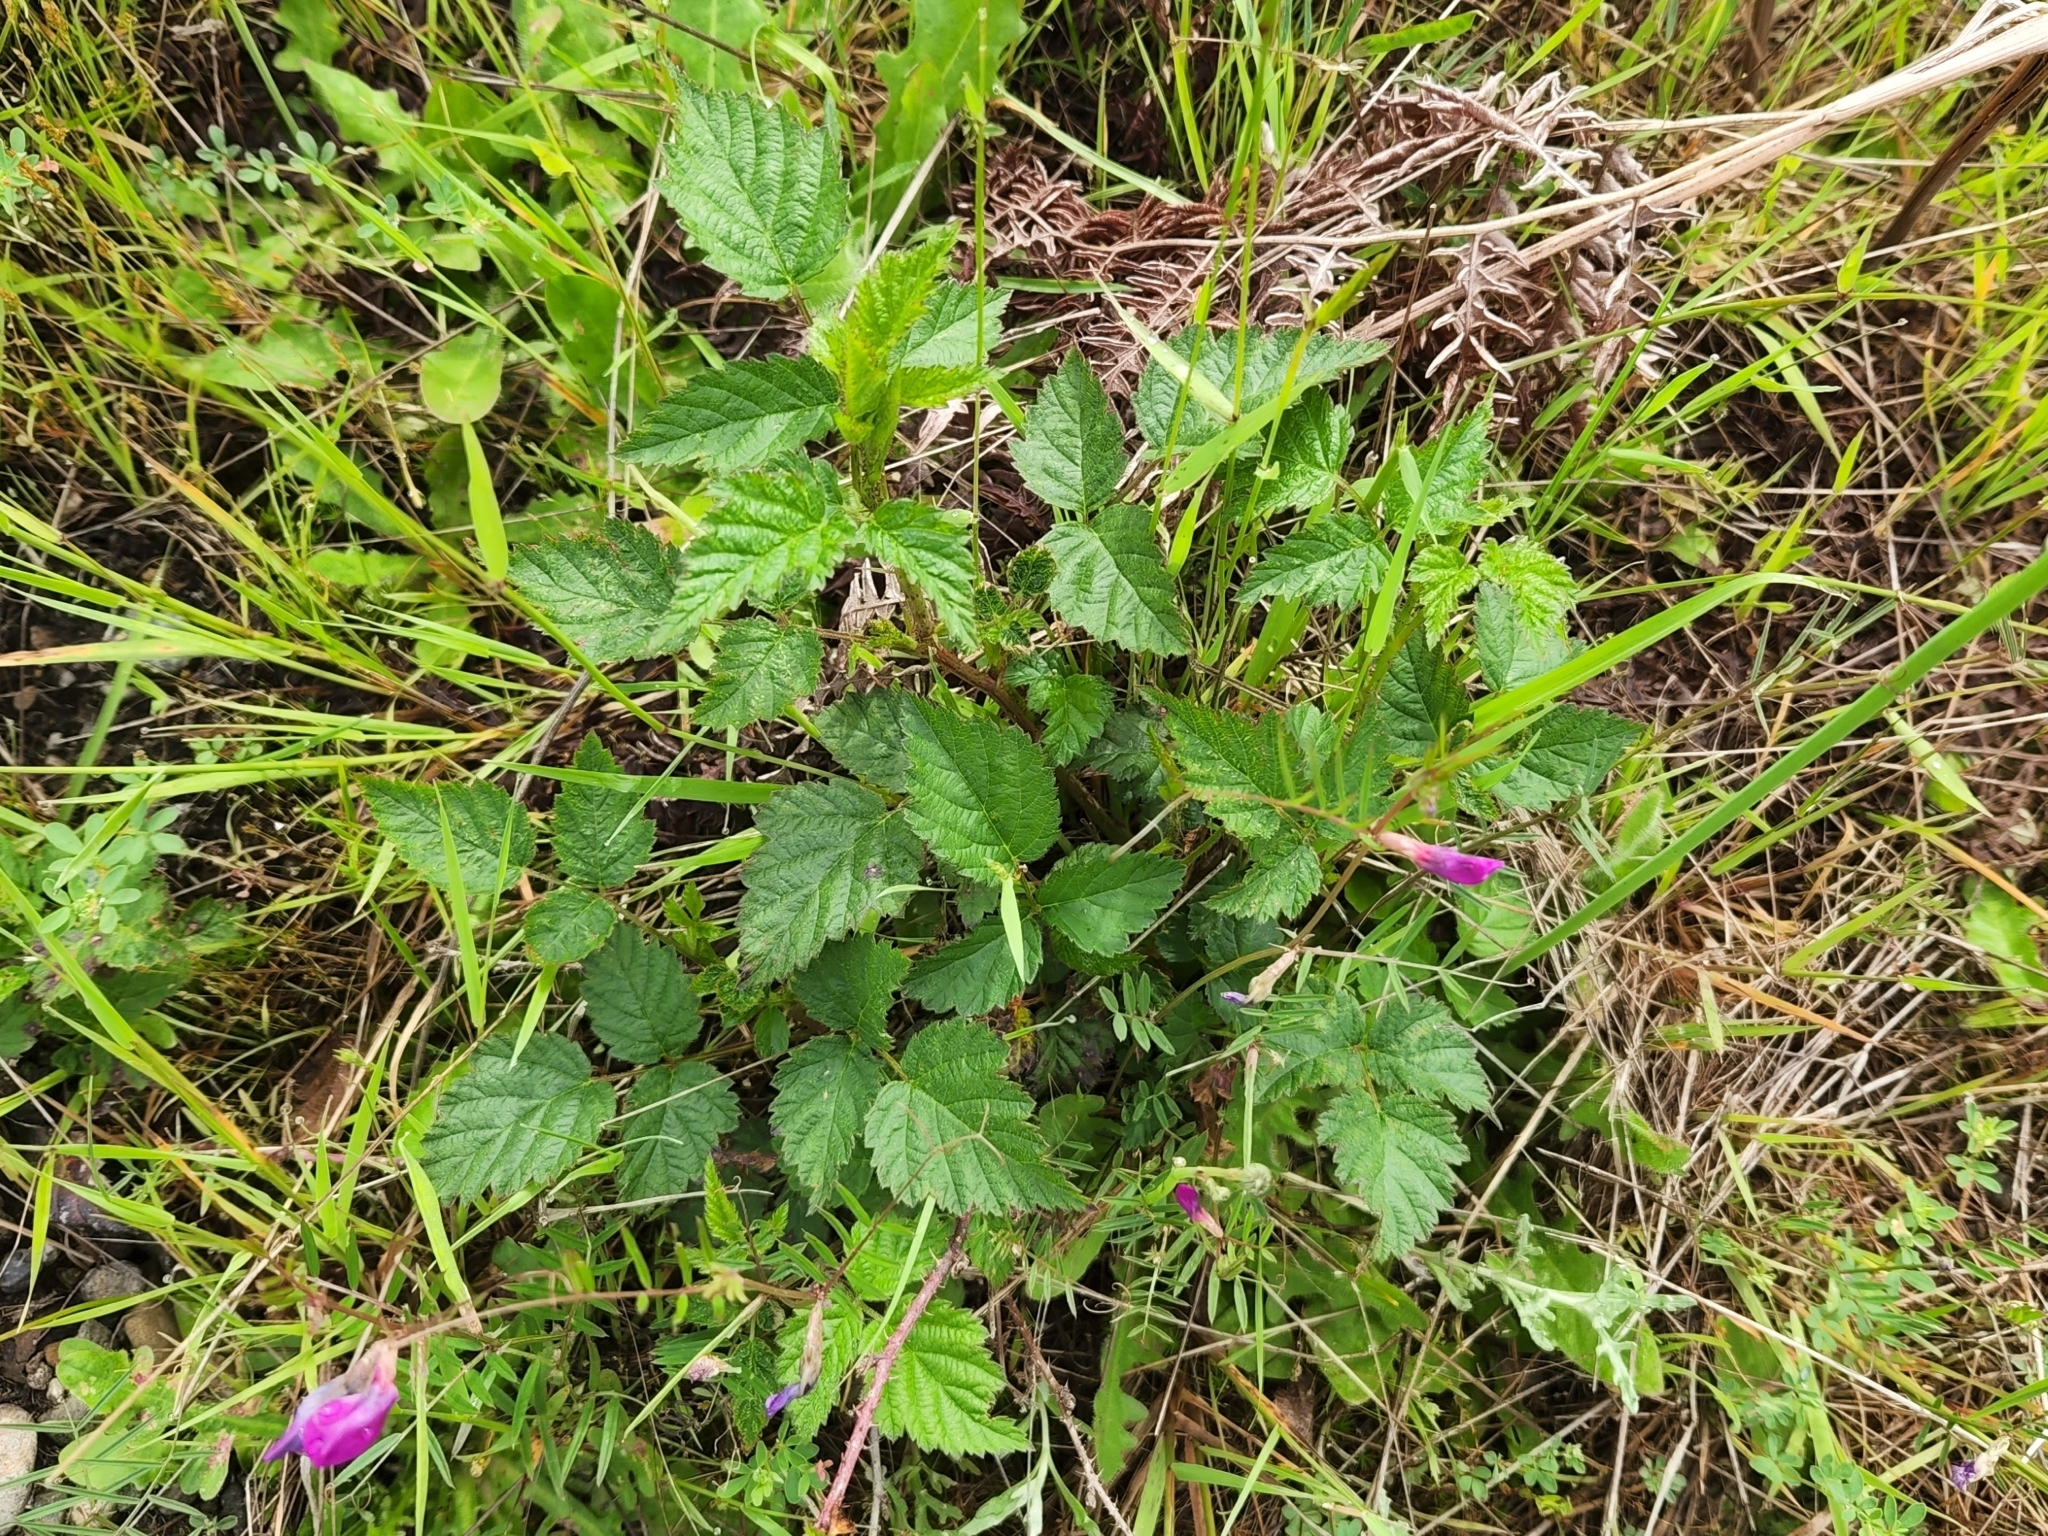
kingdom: Plantae
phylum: Tracheophyta
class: Magnoliopsida
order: Rosales
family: Rosaceae
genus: Rubus
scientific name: Rubus ursinus
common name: Pacific blackberry
